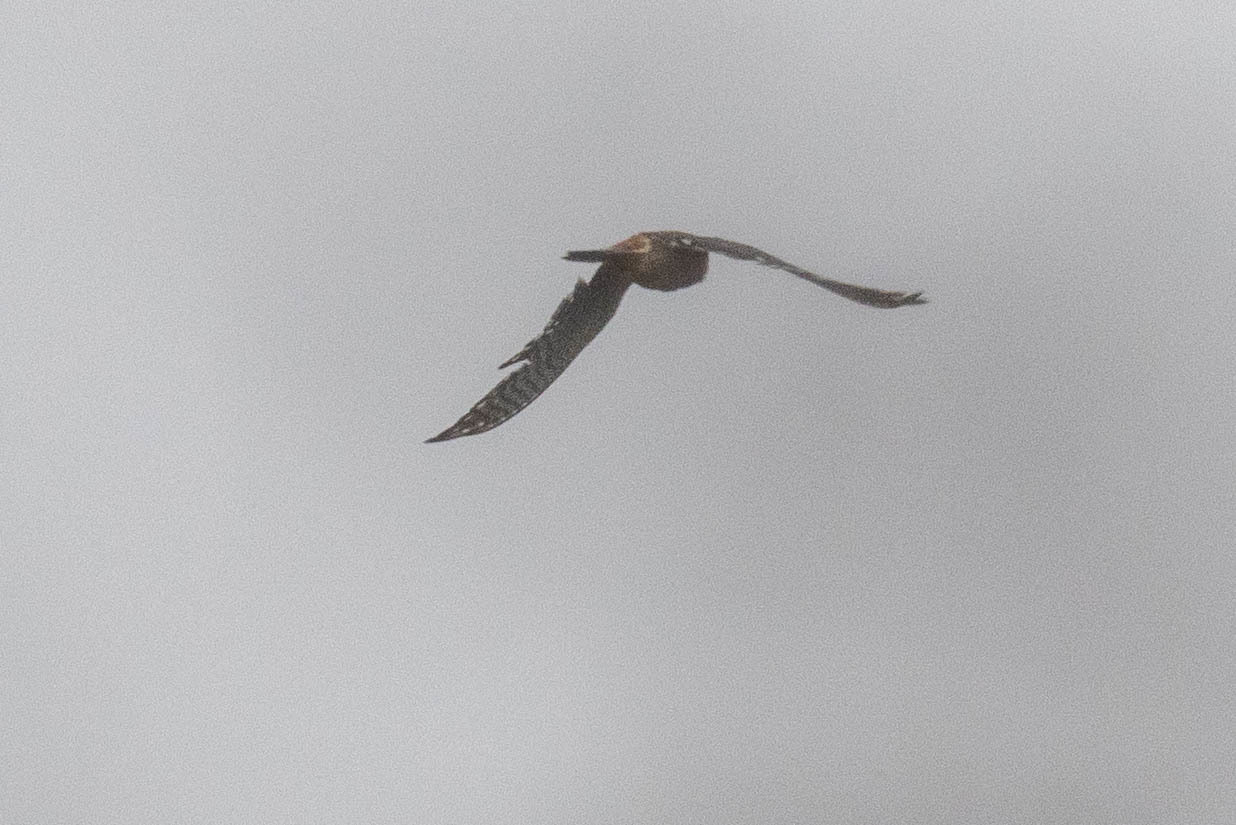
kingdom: Animalia
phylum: Chordata
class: Aves
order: Falconiformes
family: Falconidae
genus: Falco
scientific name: Falco sparverius
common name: American kestrel
